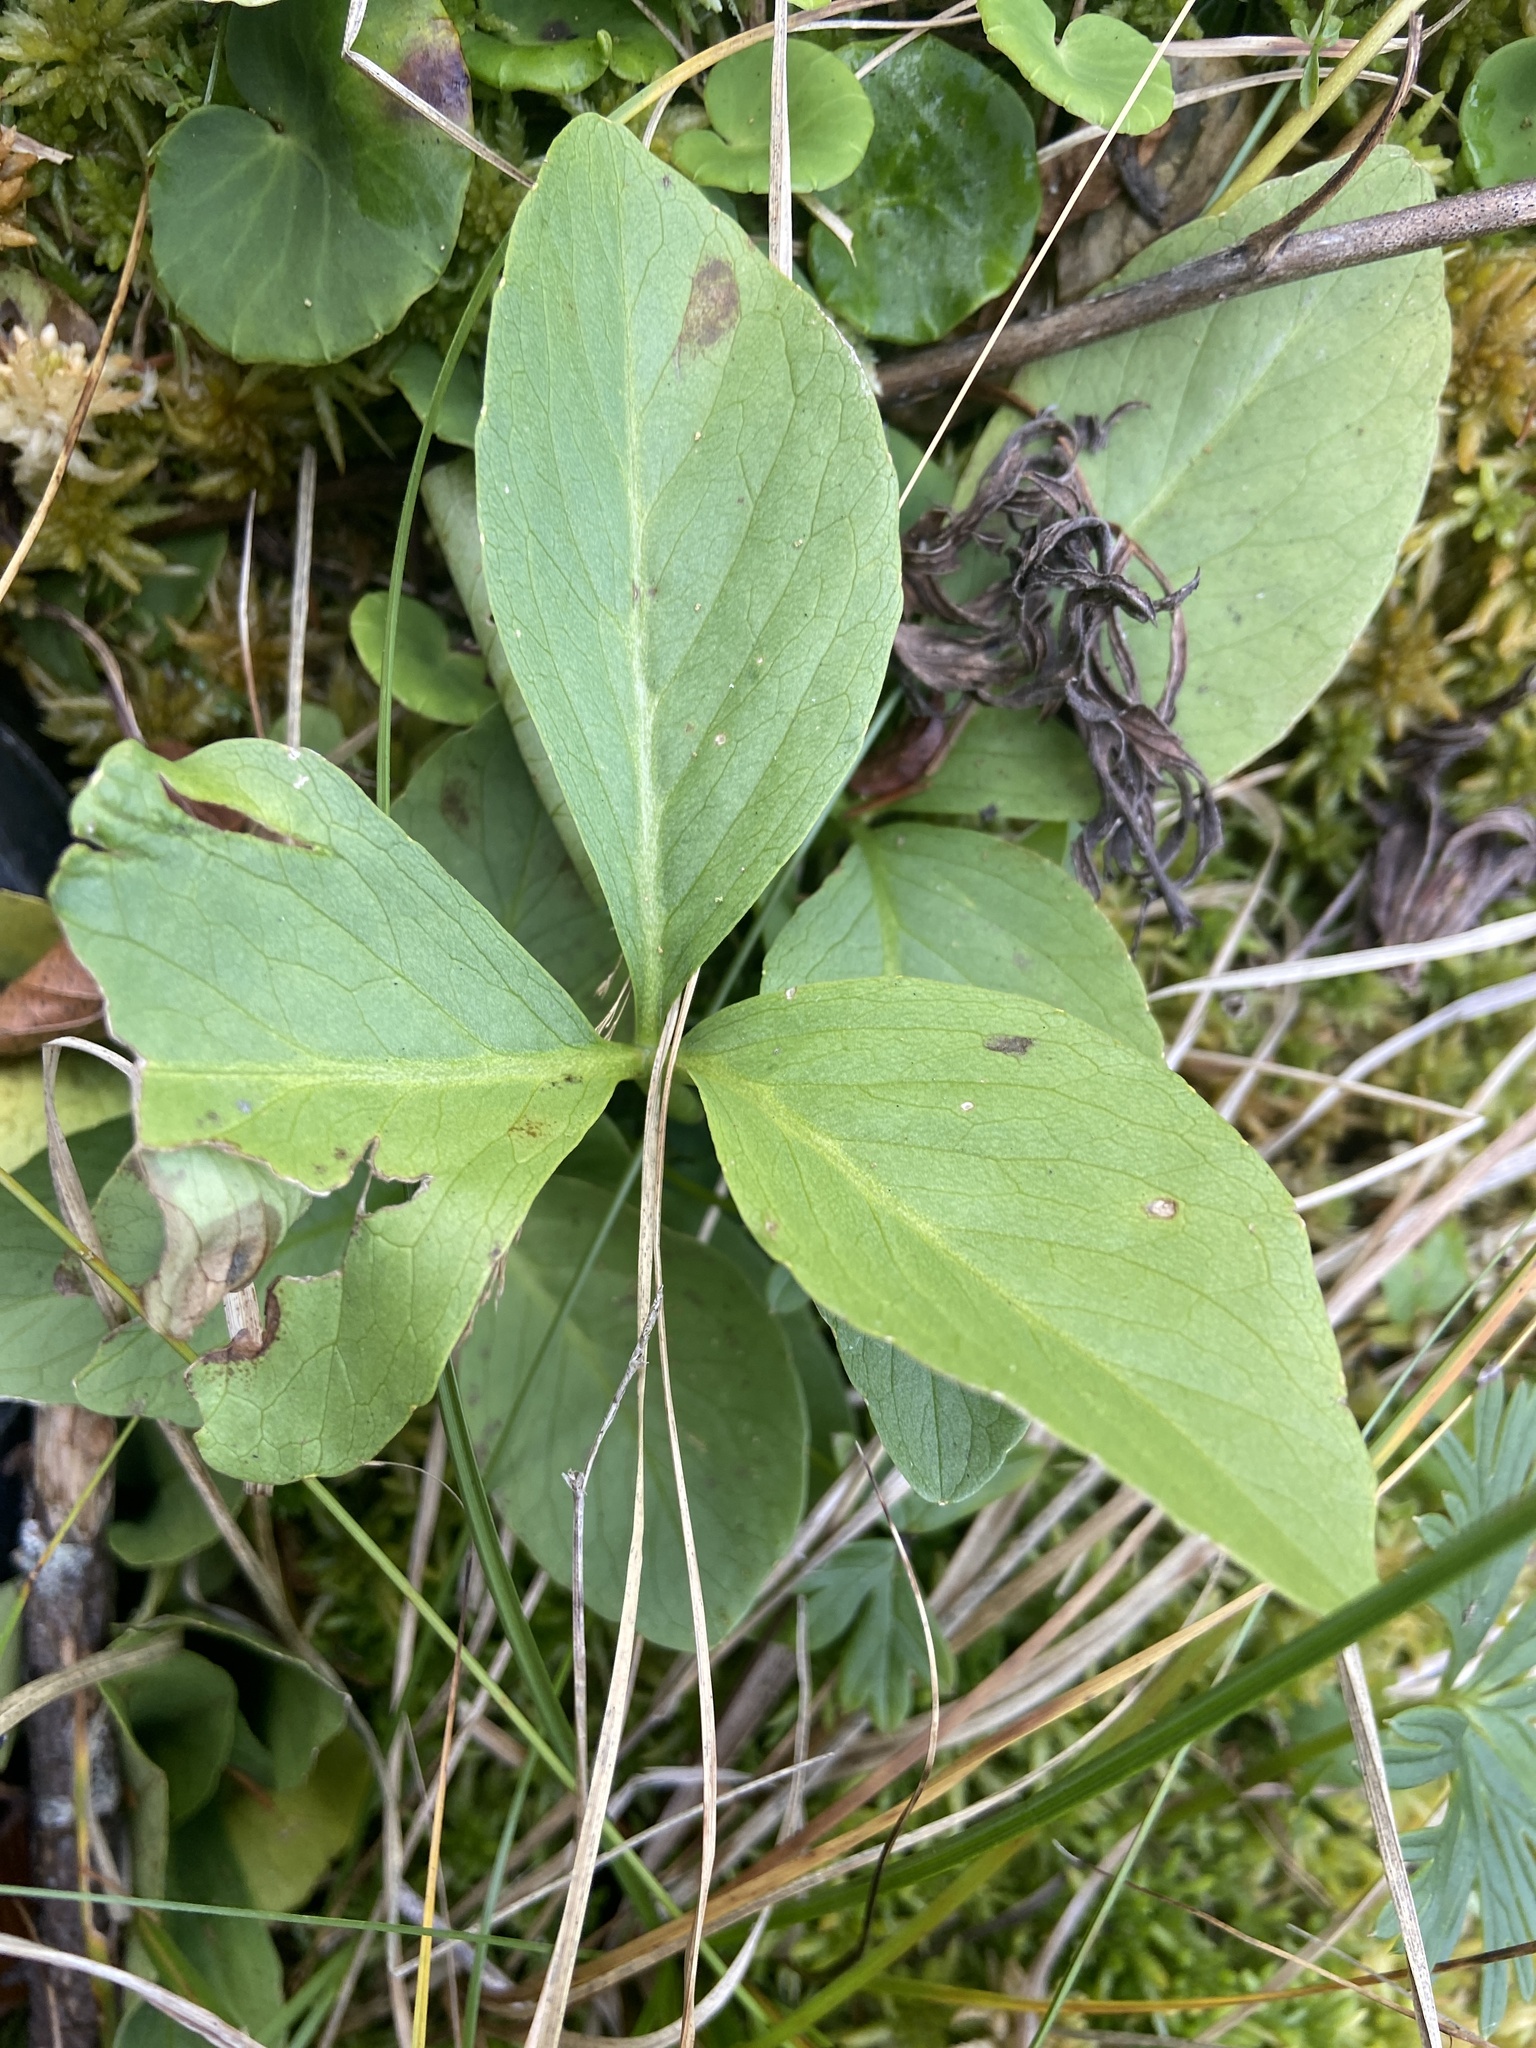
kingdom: Plantae
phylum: Tracheophyta
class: Magnoliopsida
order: Asterales
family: Menyanthaceae
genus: Menyanthes
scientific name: Menyanthes trifoliata
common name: Bogbean
